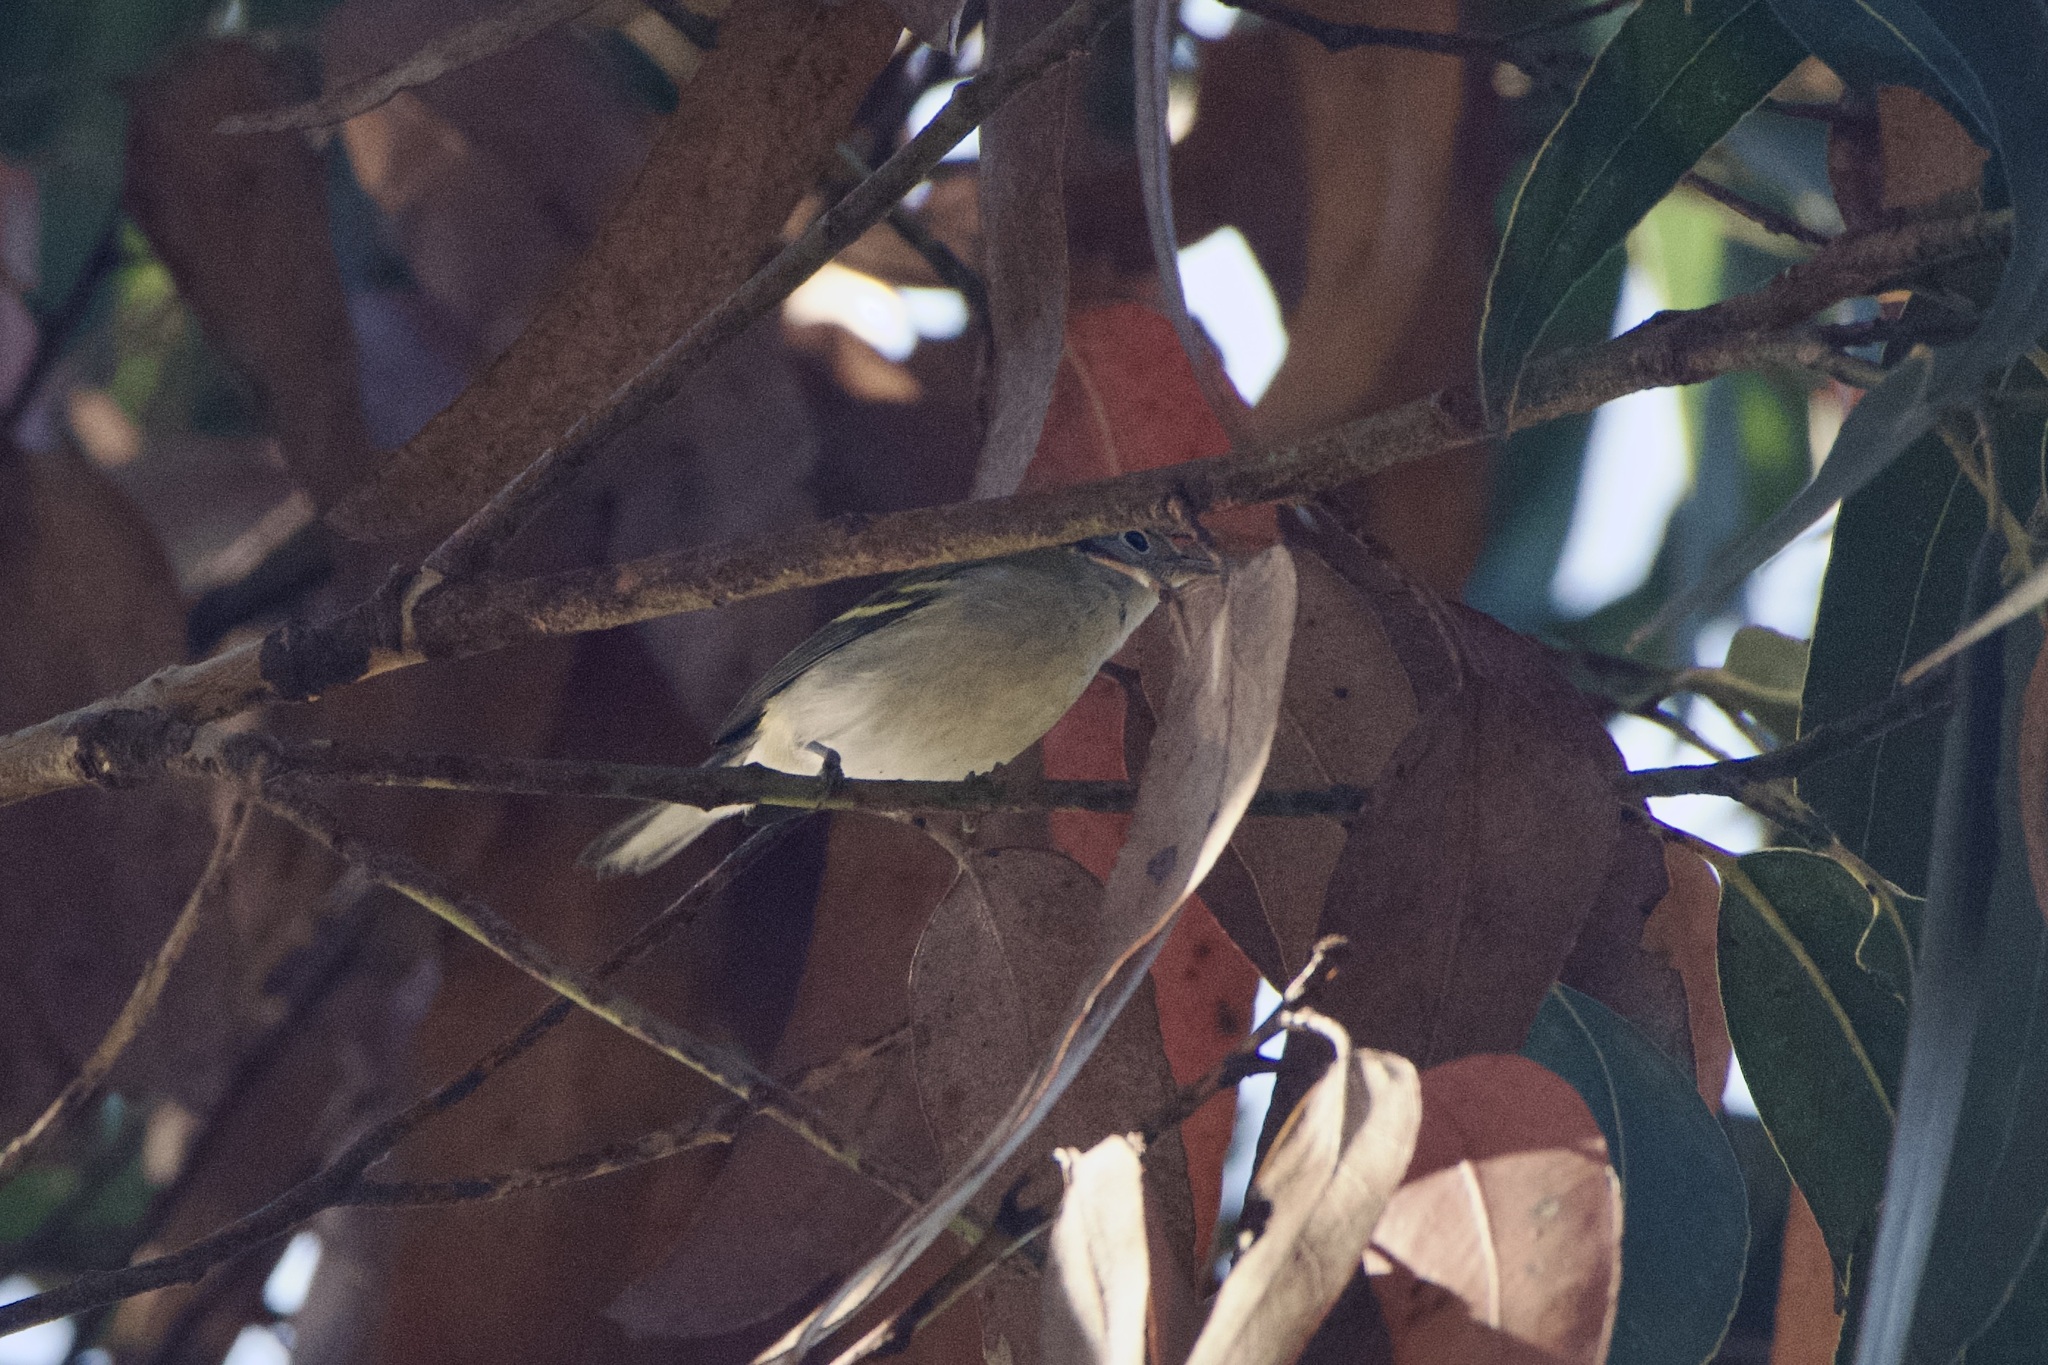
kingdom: Animalia
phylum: Chordata
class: Aves
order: Passeriformes
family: Parulidae
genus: Setophaga
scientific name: Setophaga pensylvanica
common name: Chestnut-sided warbler
